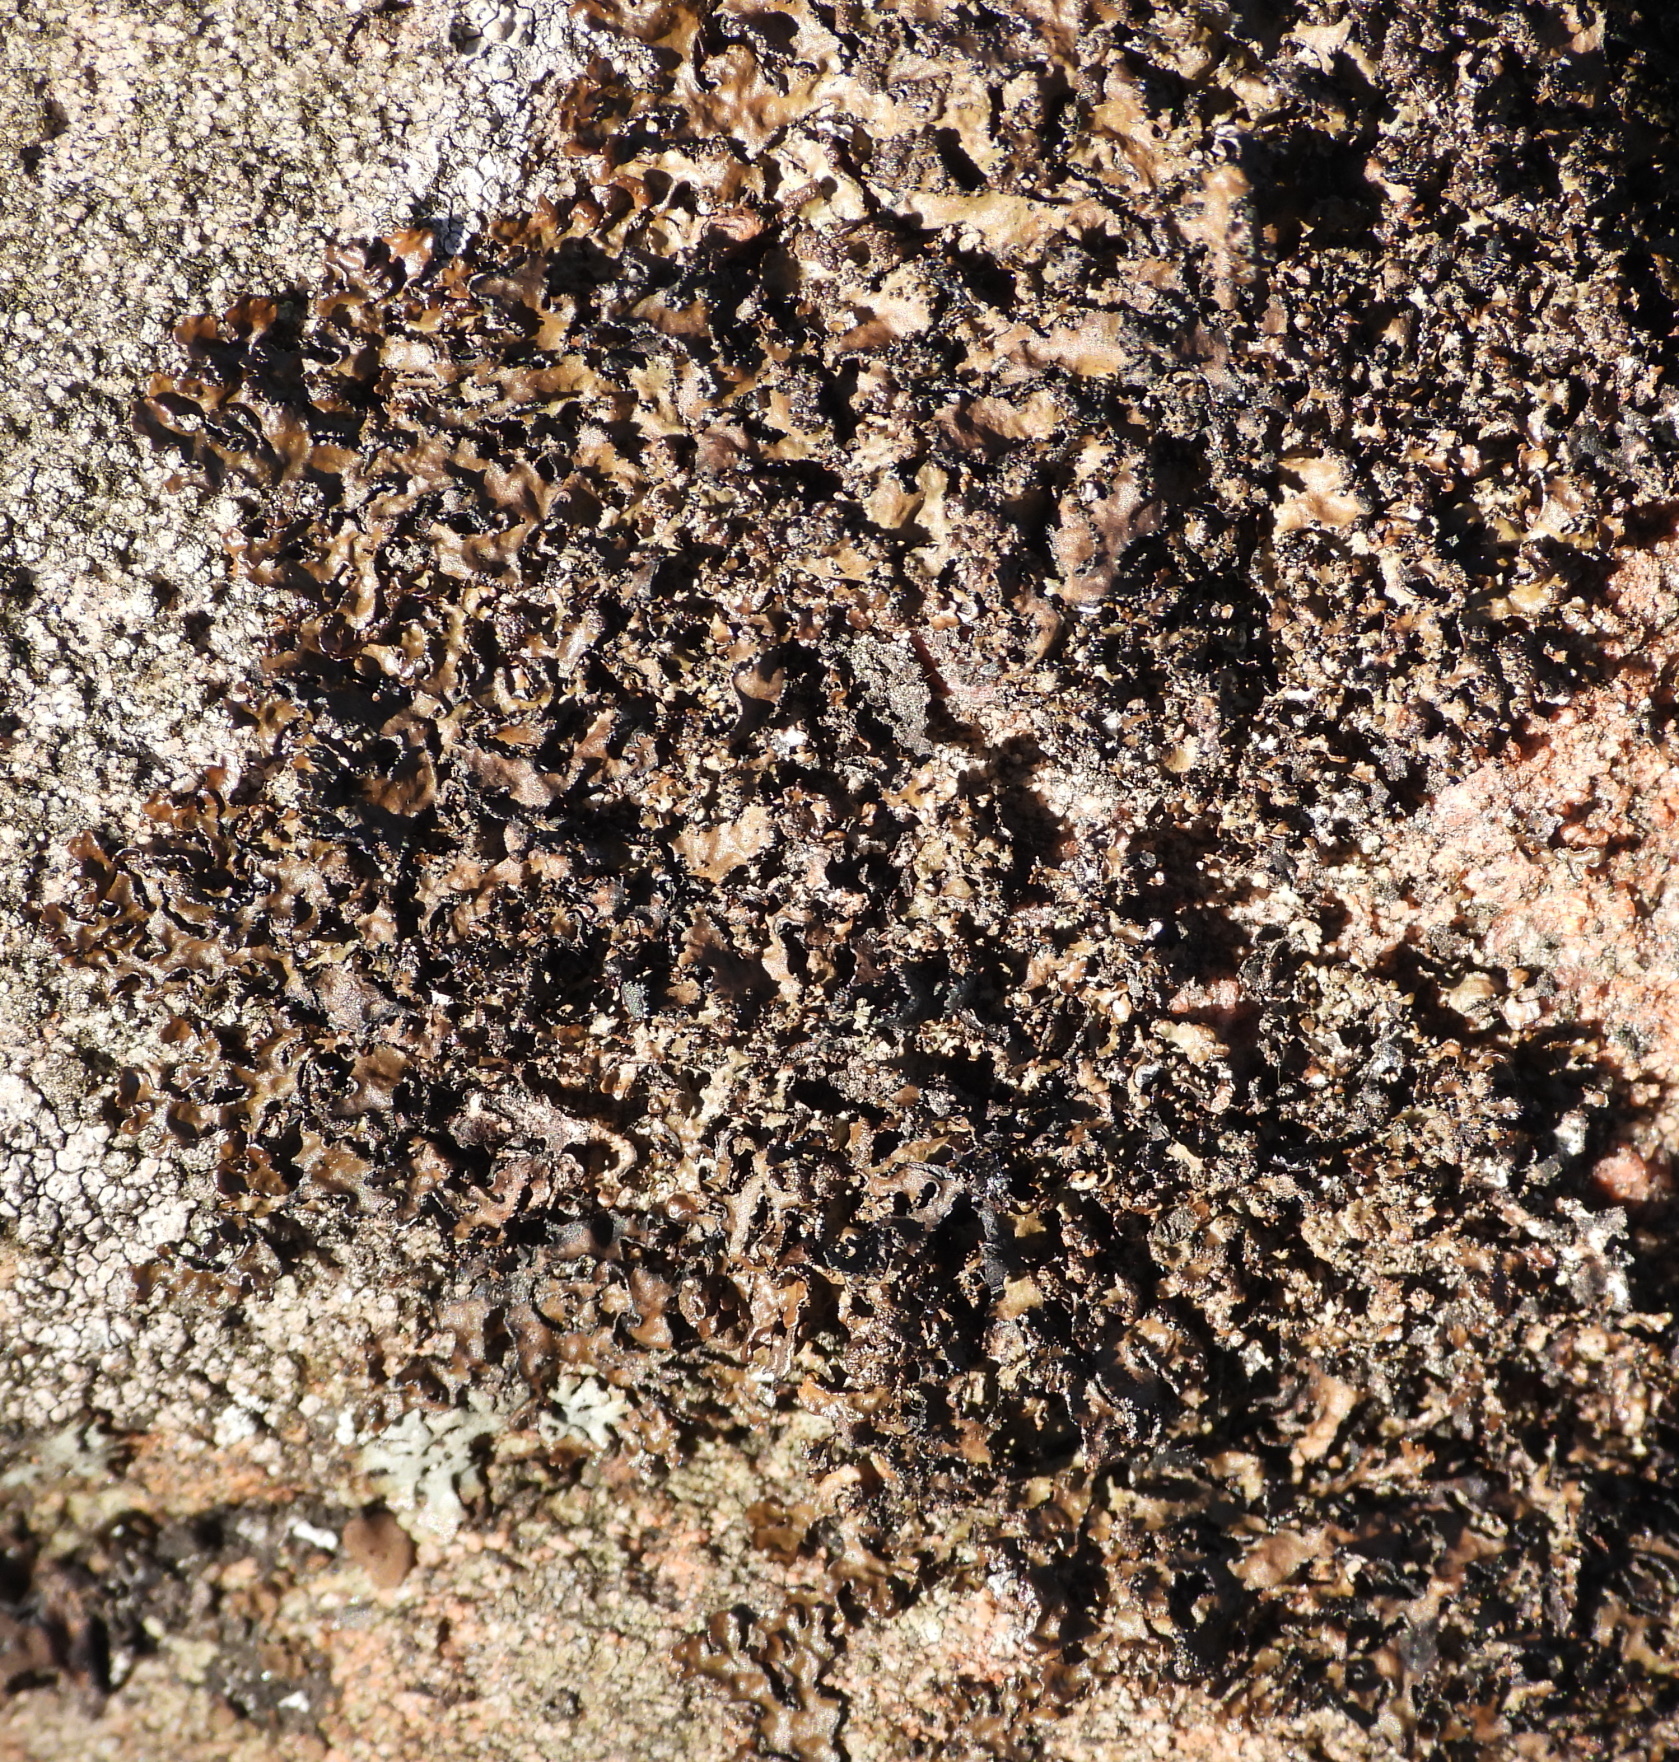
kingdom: Fungi
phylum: Ascomycota
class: Lecanoromycetes
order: Lecanorales
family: Parmeliaceae
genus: Melanelia
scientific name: Melanelia hepatizon
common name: Rimmed camouflage lichen
